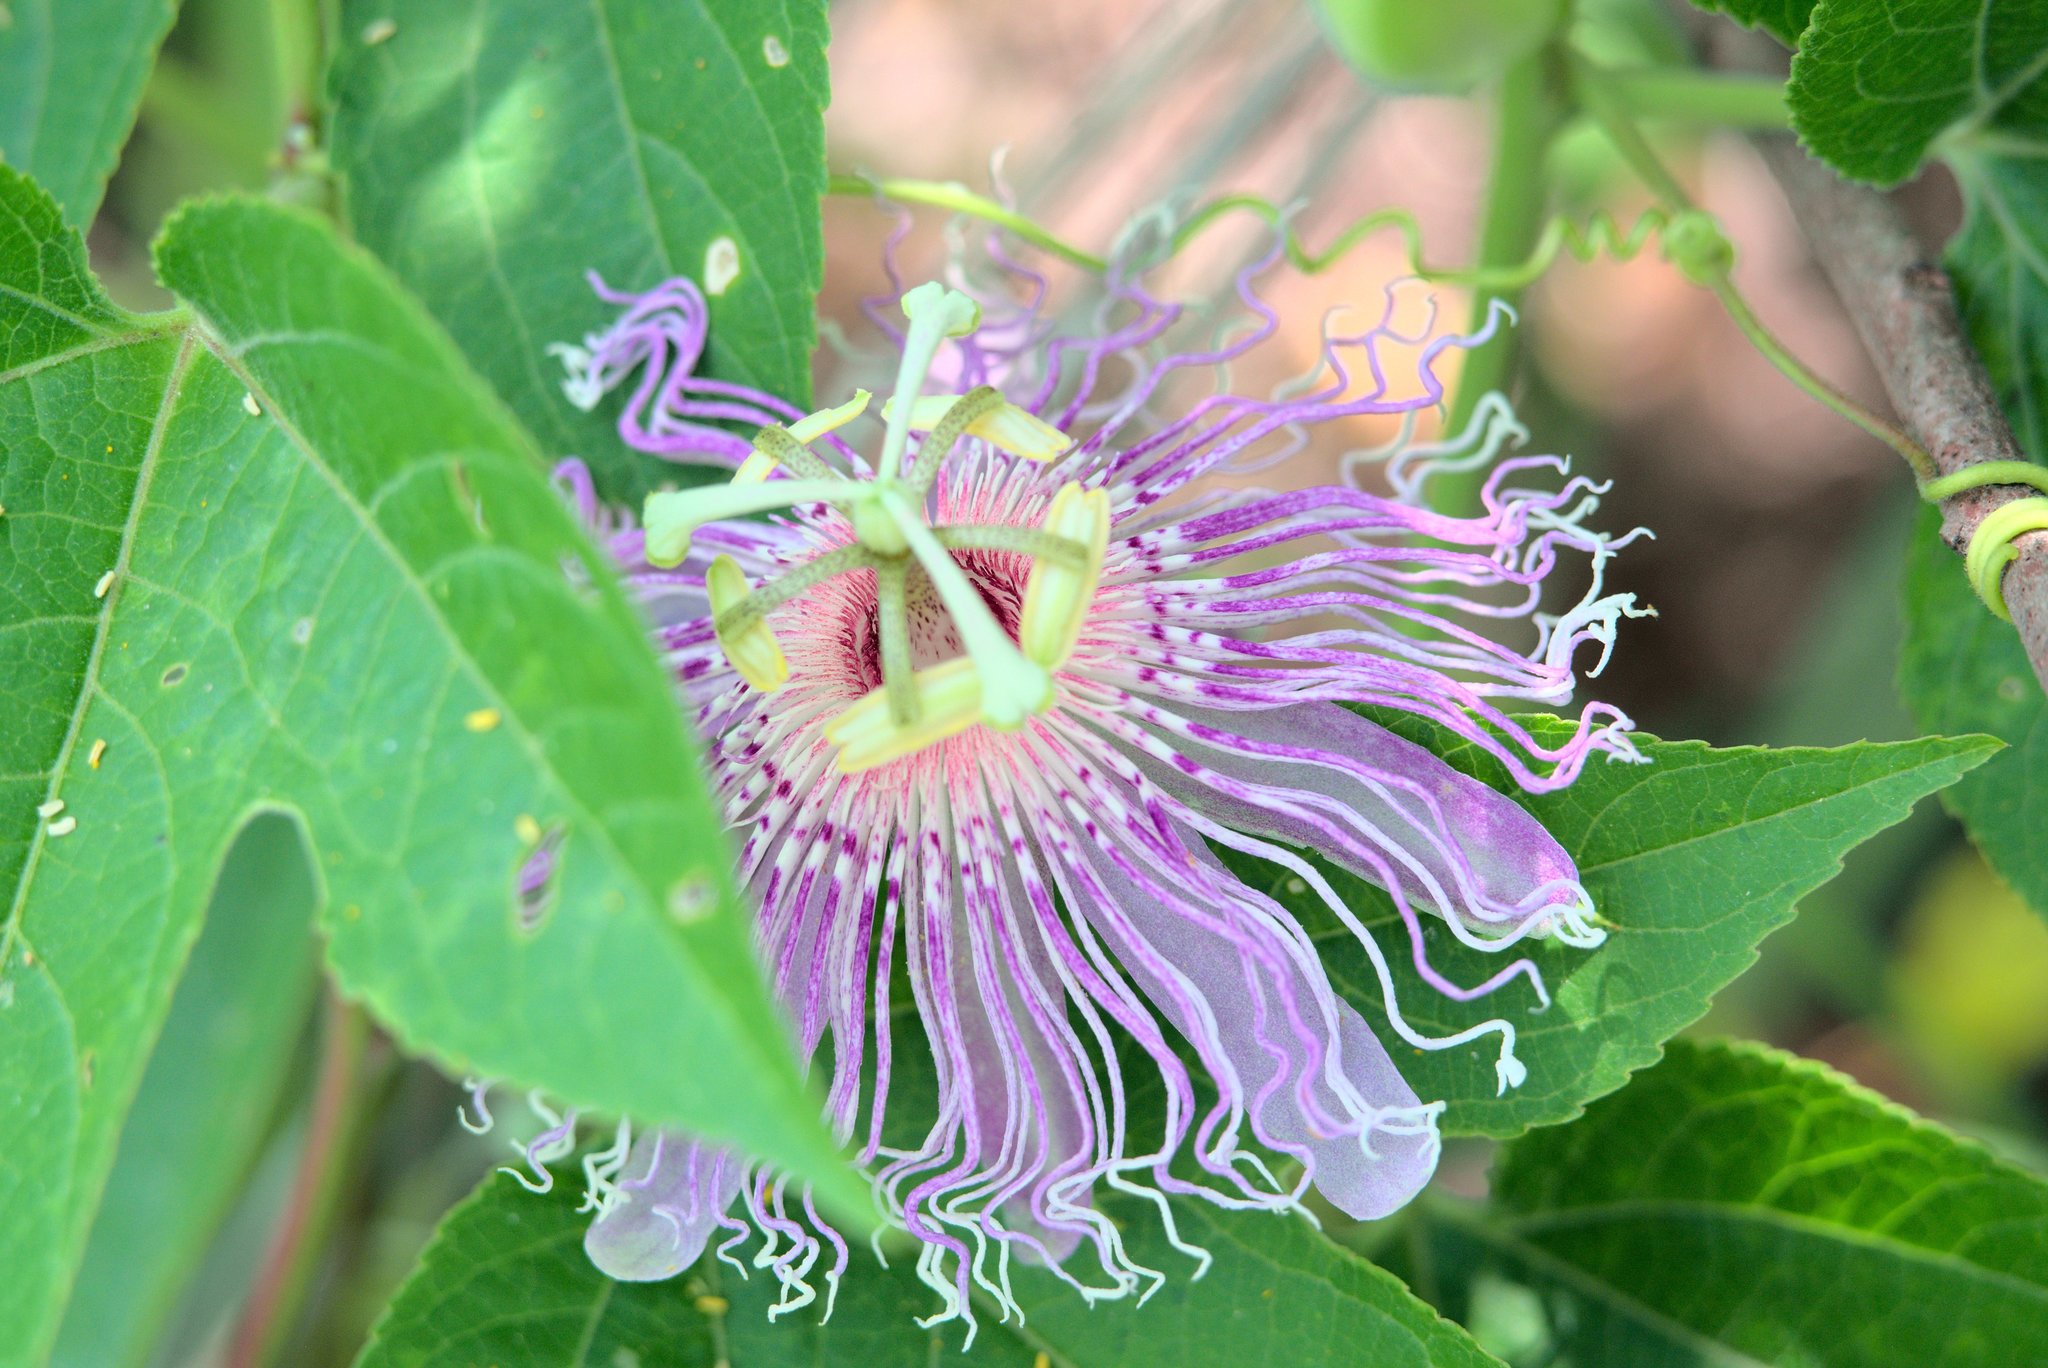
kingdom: Plantae
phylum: Tracheophyta
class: Magnoliopsida
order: Malpighiales
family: Passifloraceae
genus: Passiflora
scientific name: Passiflora incarnata
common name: Apricot-vine
